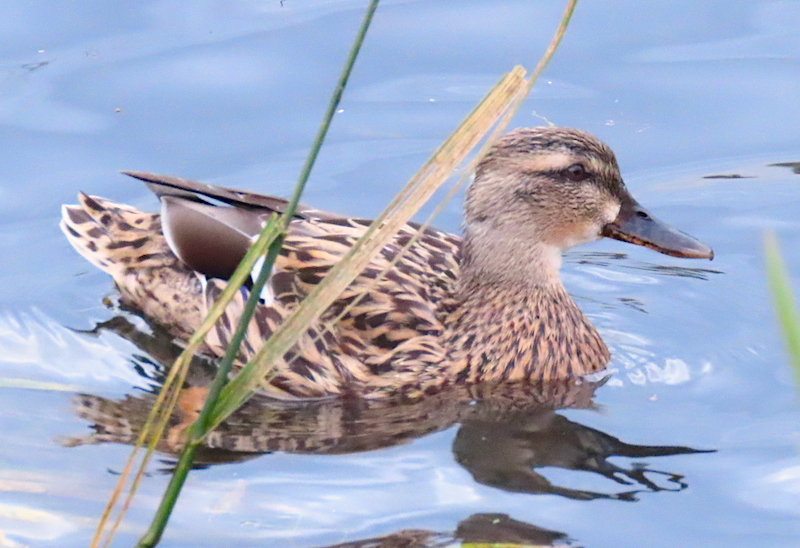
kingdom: Animalia
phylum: Chordata
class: Aves
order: Anseriformes
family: Anatidae
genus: Anas
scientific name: Anas platyrhynchos
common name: Mallard
